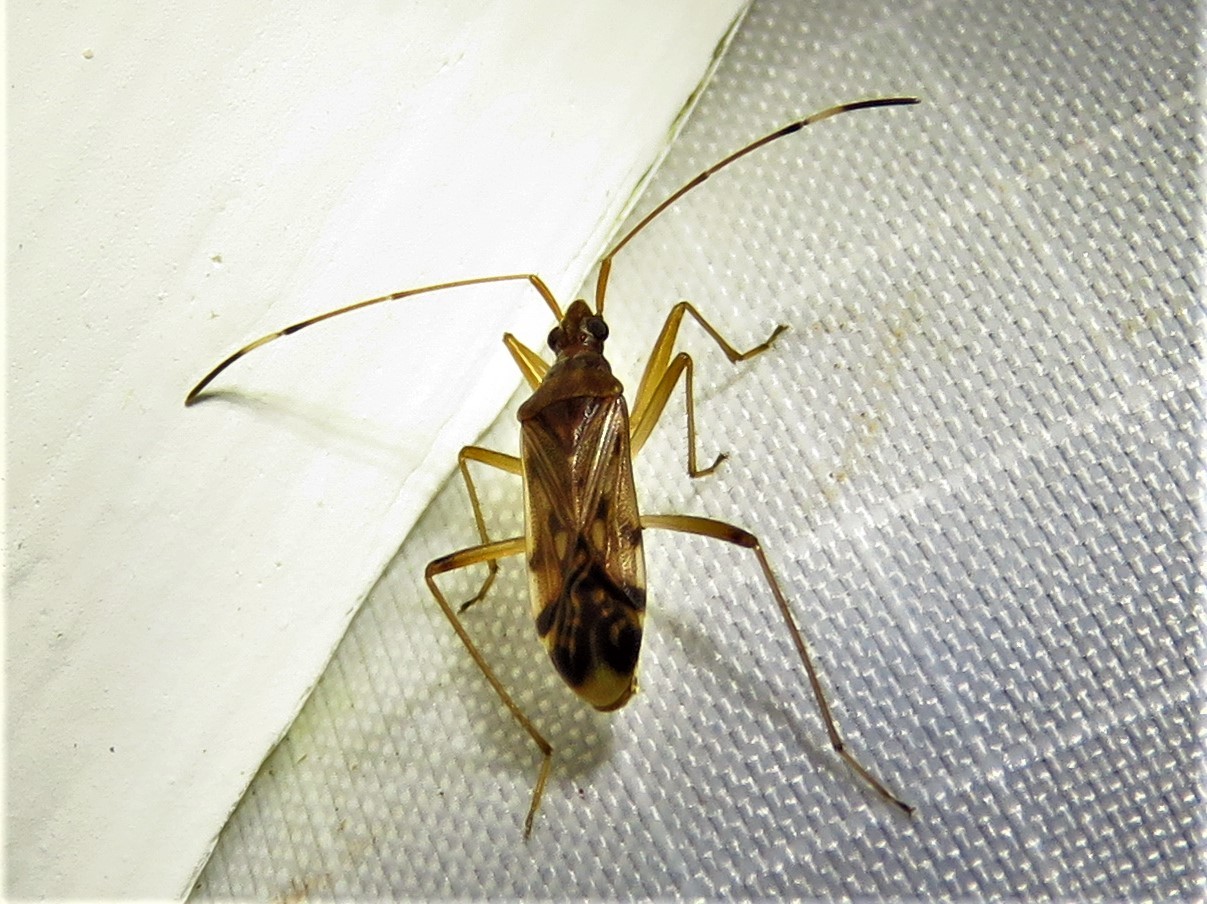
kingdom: Animalia
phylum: Arthropoda
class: Insecta
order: Hemiptera
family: Rhyparochromidae
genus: Ozophora
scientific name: Ozophora depicturata
